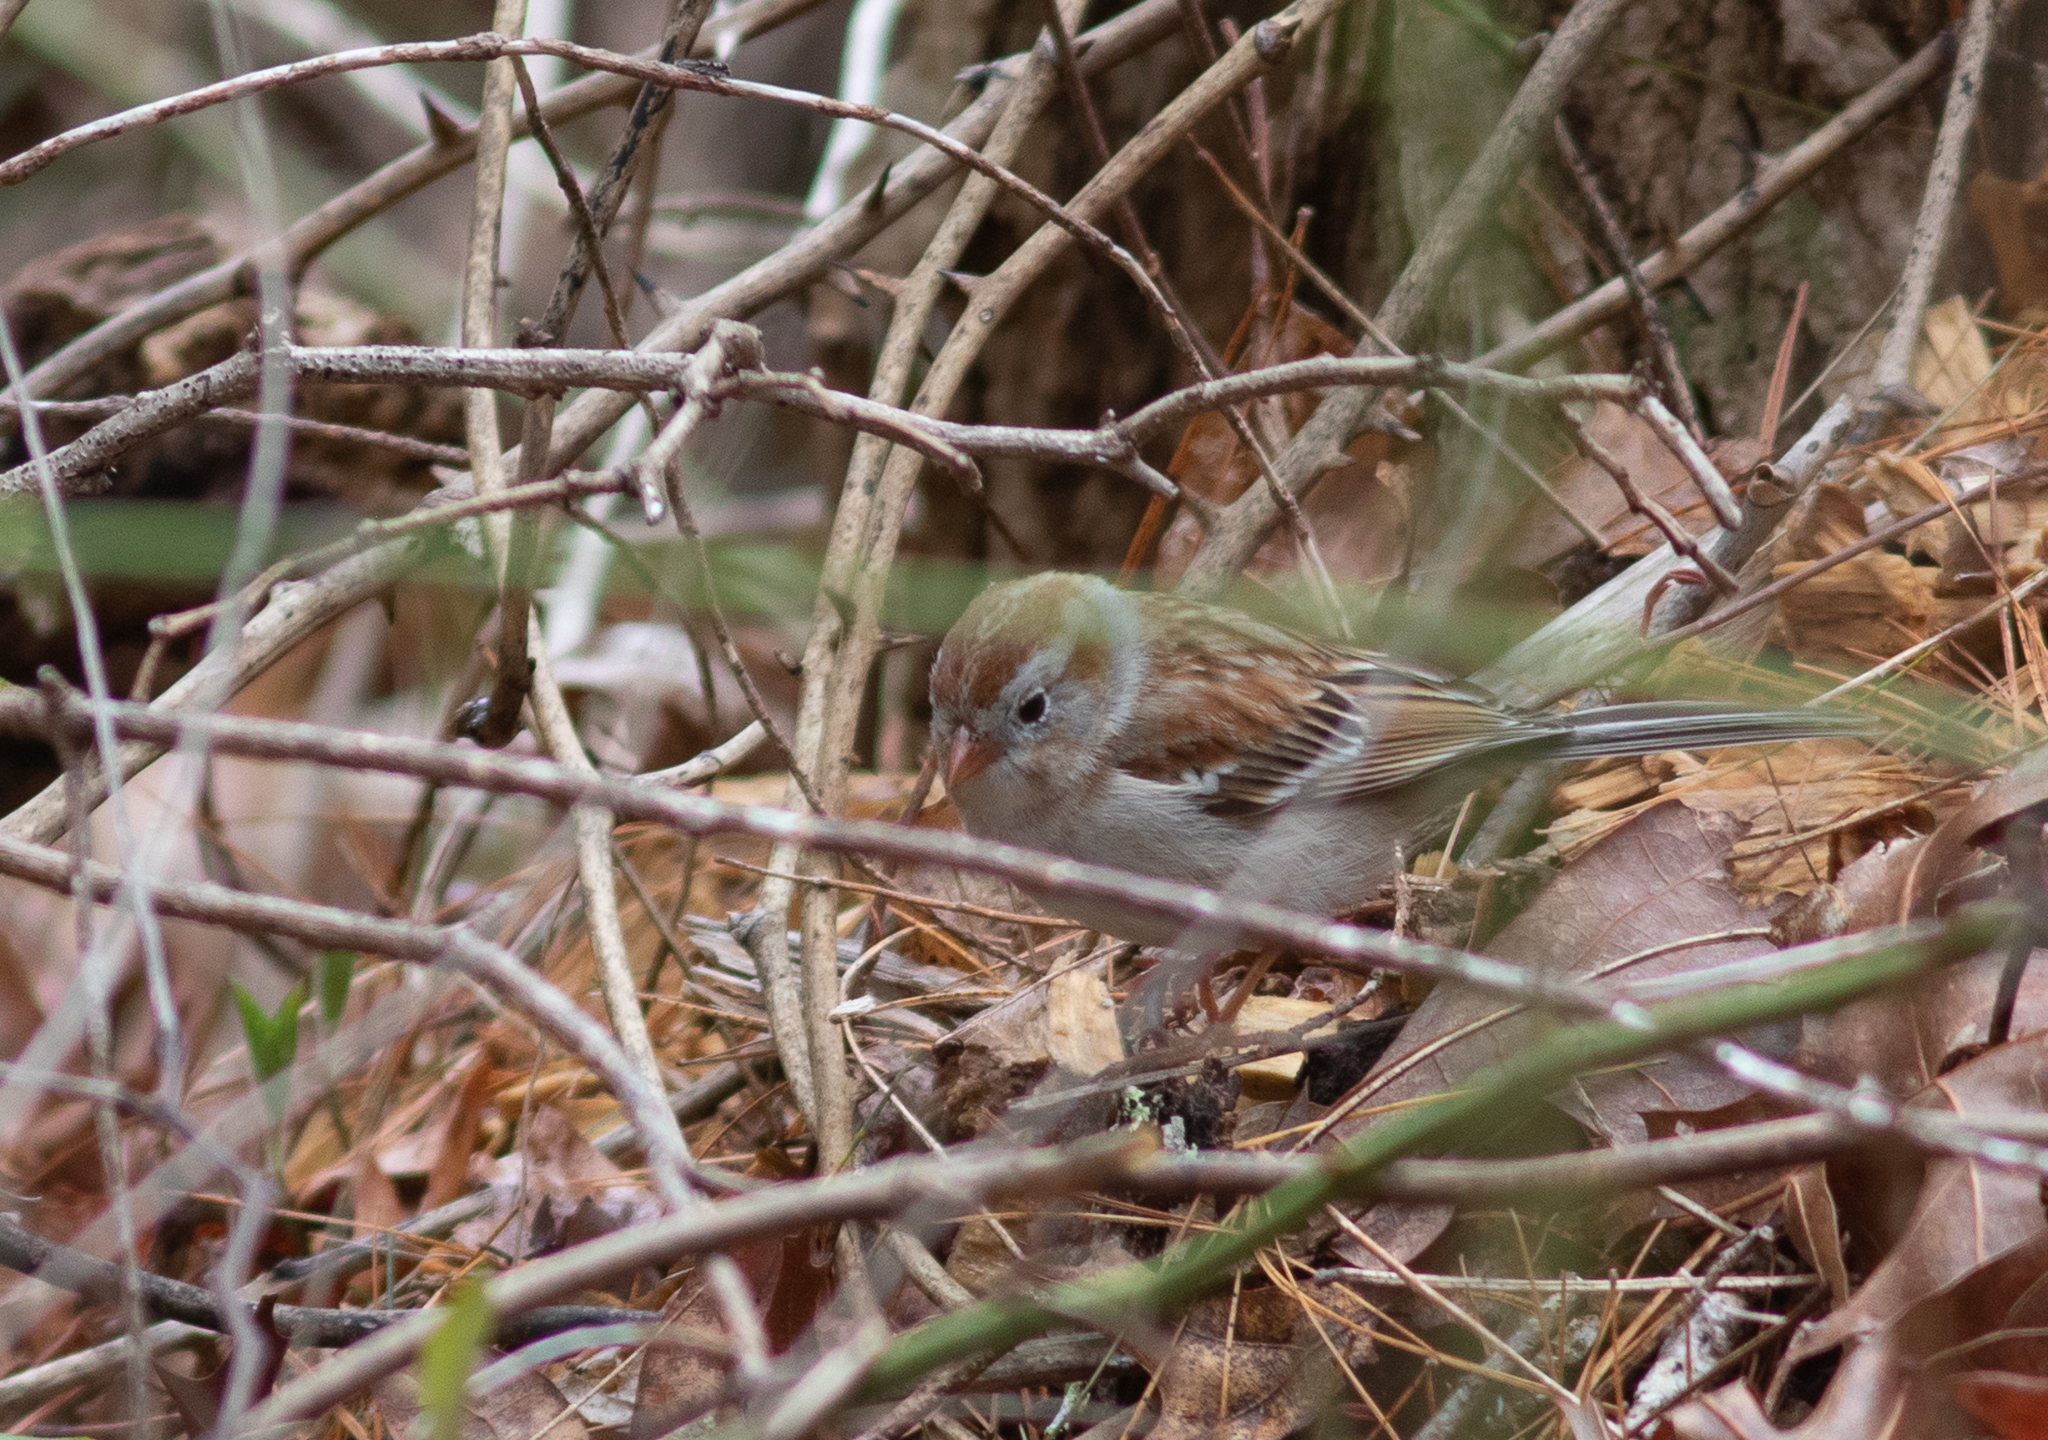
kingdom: Animalia
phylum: Chordata
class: Aves
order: Passeriformes
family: Passerellidae
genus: Spizella
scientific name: Spizella pusilla
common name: Field sparrow
